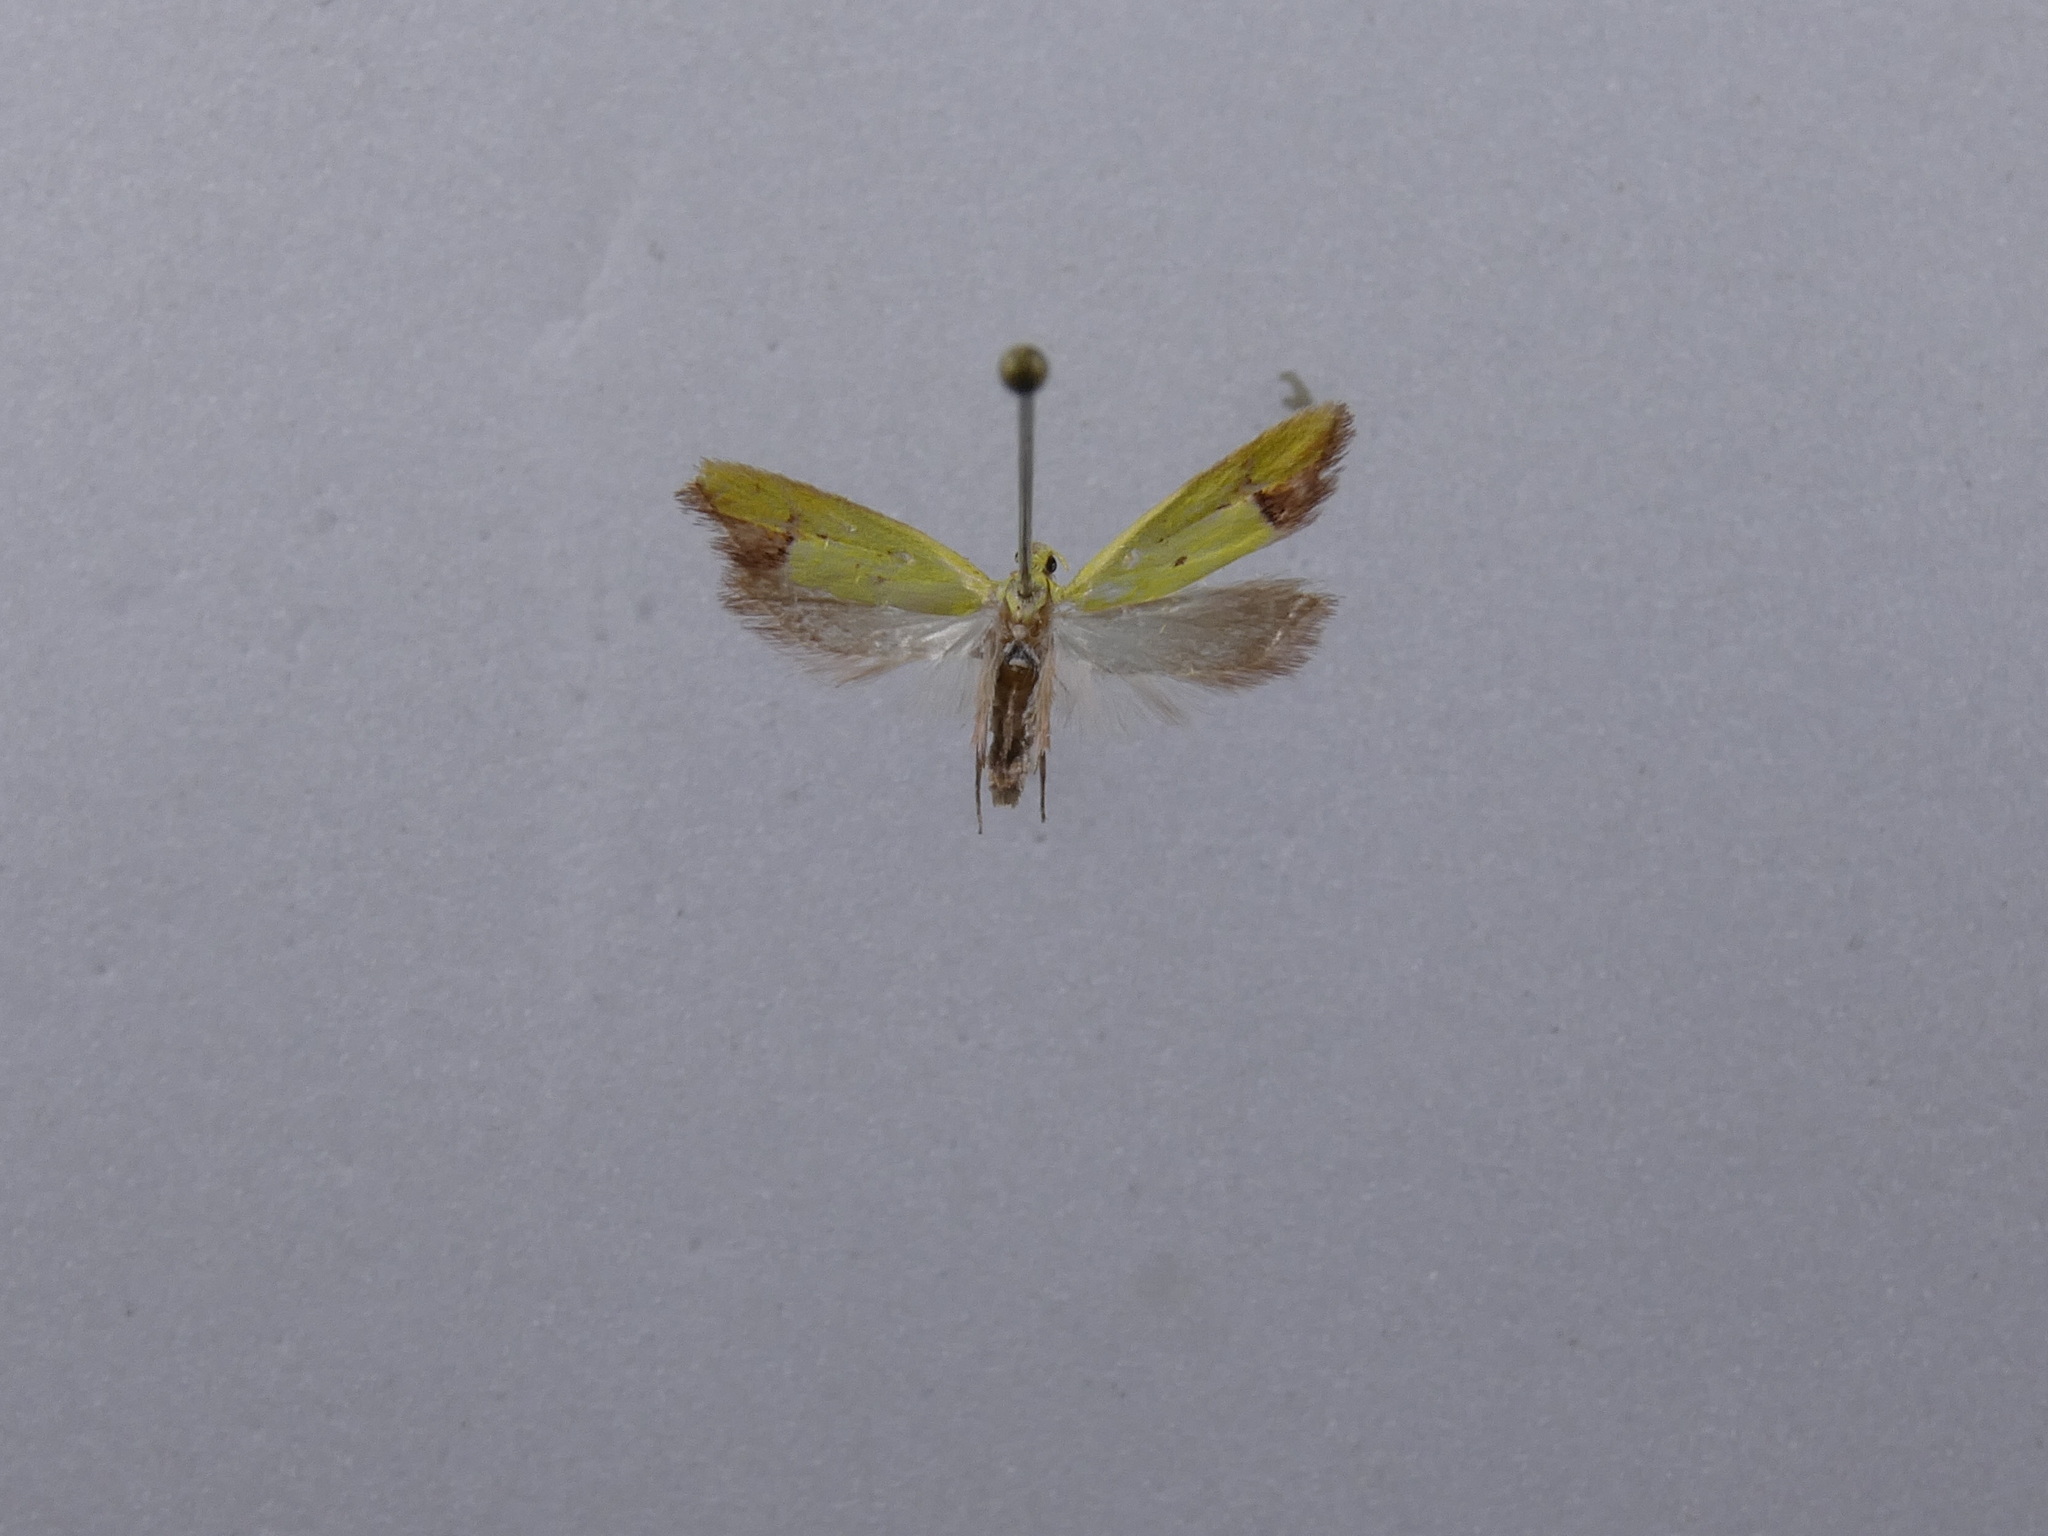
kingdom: Animalia
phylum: Arthropoda
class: Insecta
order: Lepidoptera
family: Oecophoridae
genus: Gymnobathra
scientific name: Gymnobathra flavidella
